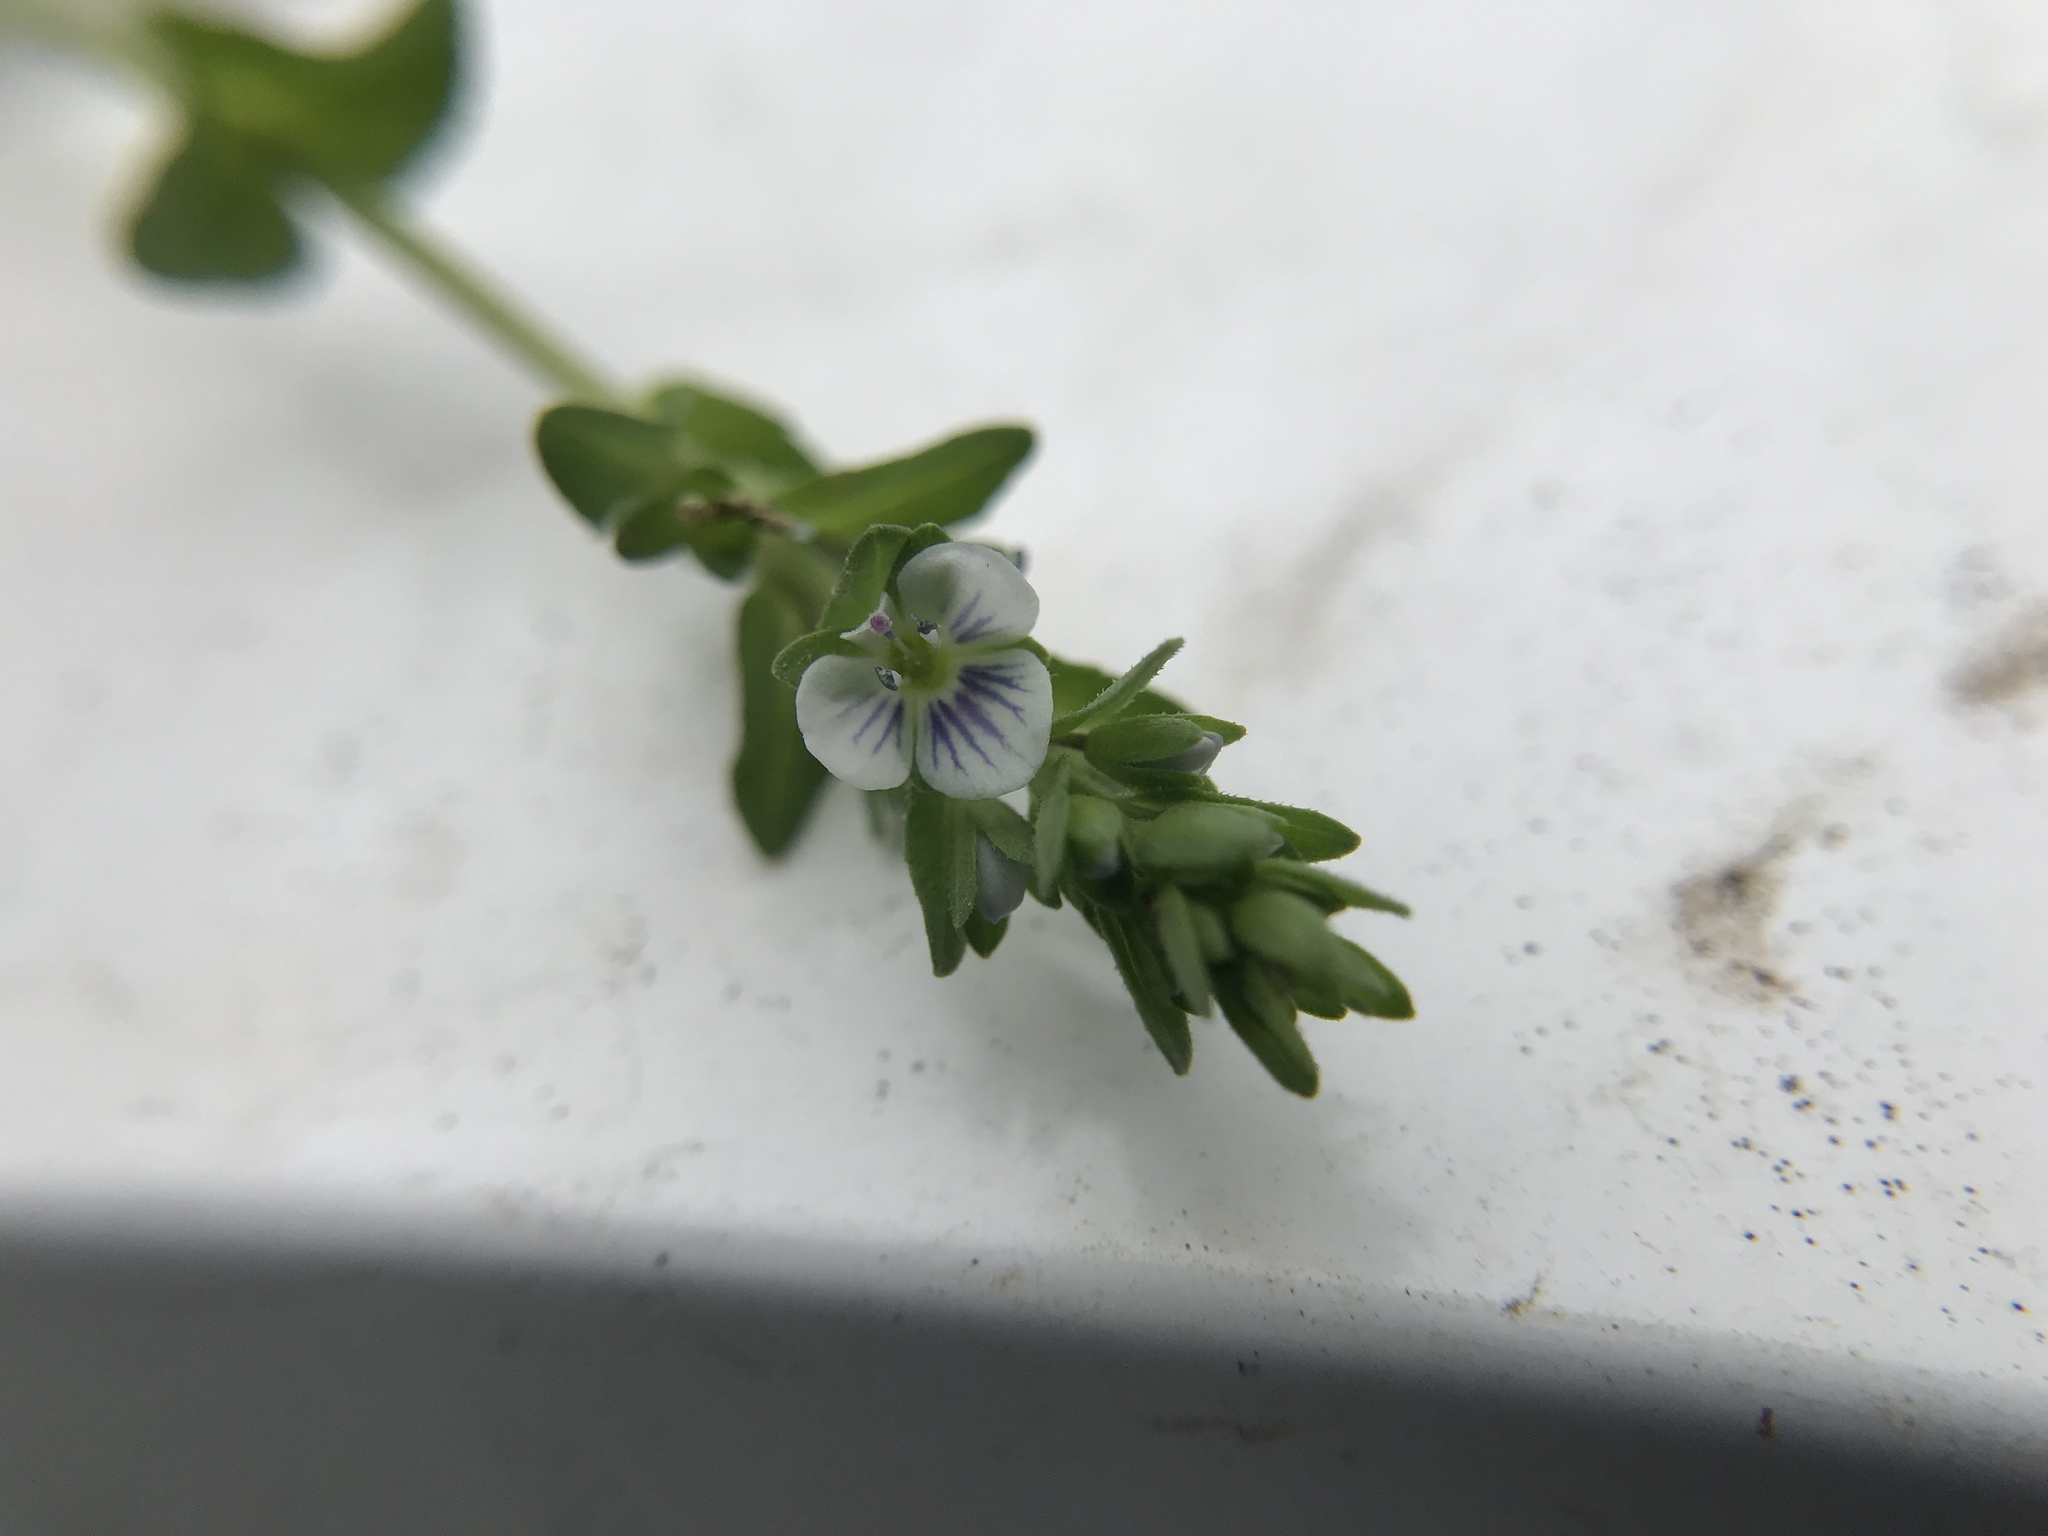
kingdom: Plantae
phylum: Tracheophyta
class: Magnoliopsida
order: Lamiales
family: Plantaginaceae
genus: Veronica
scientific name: Veronica serpyllifolia
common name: Thyme-leaved speedwell
